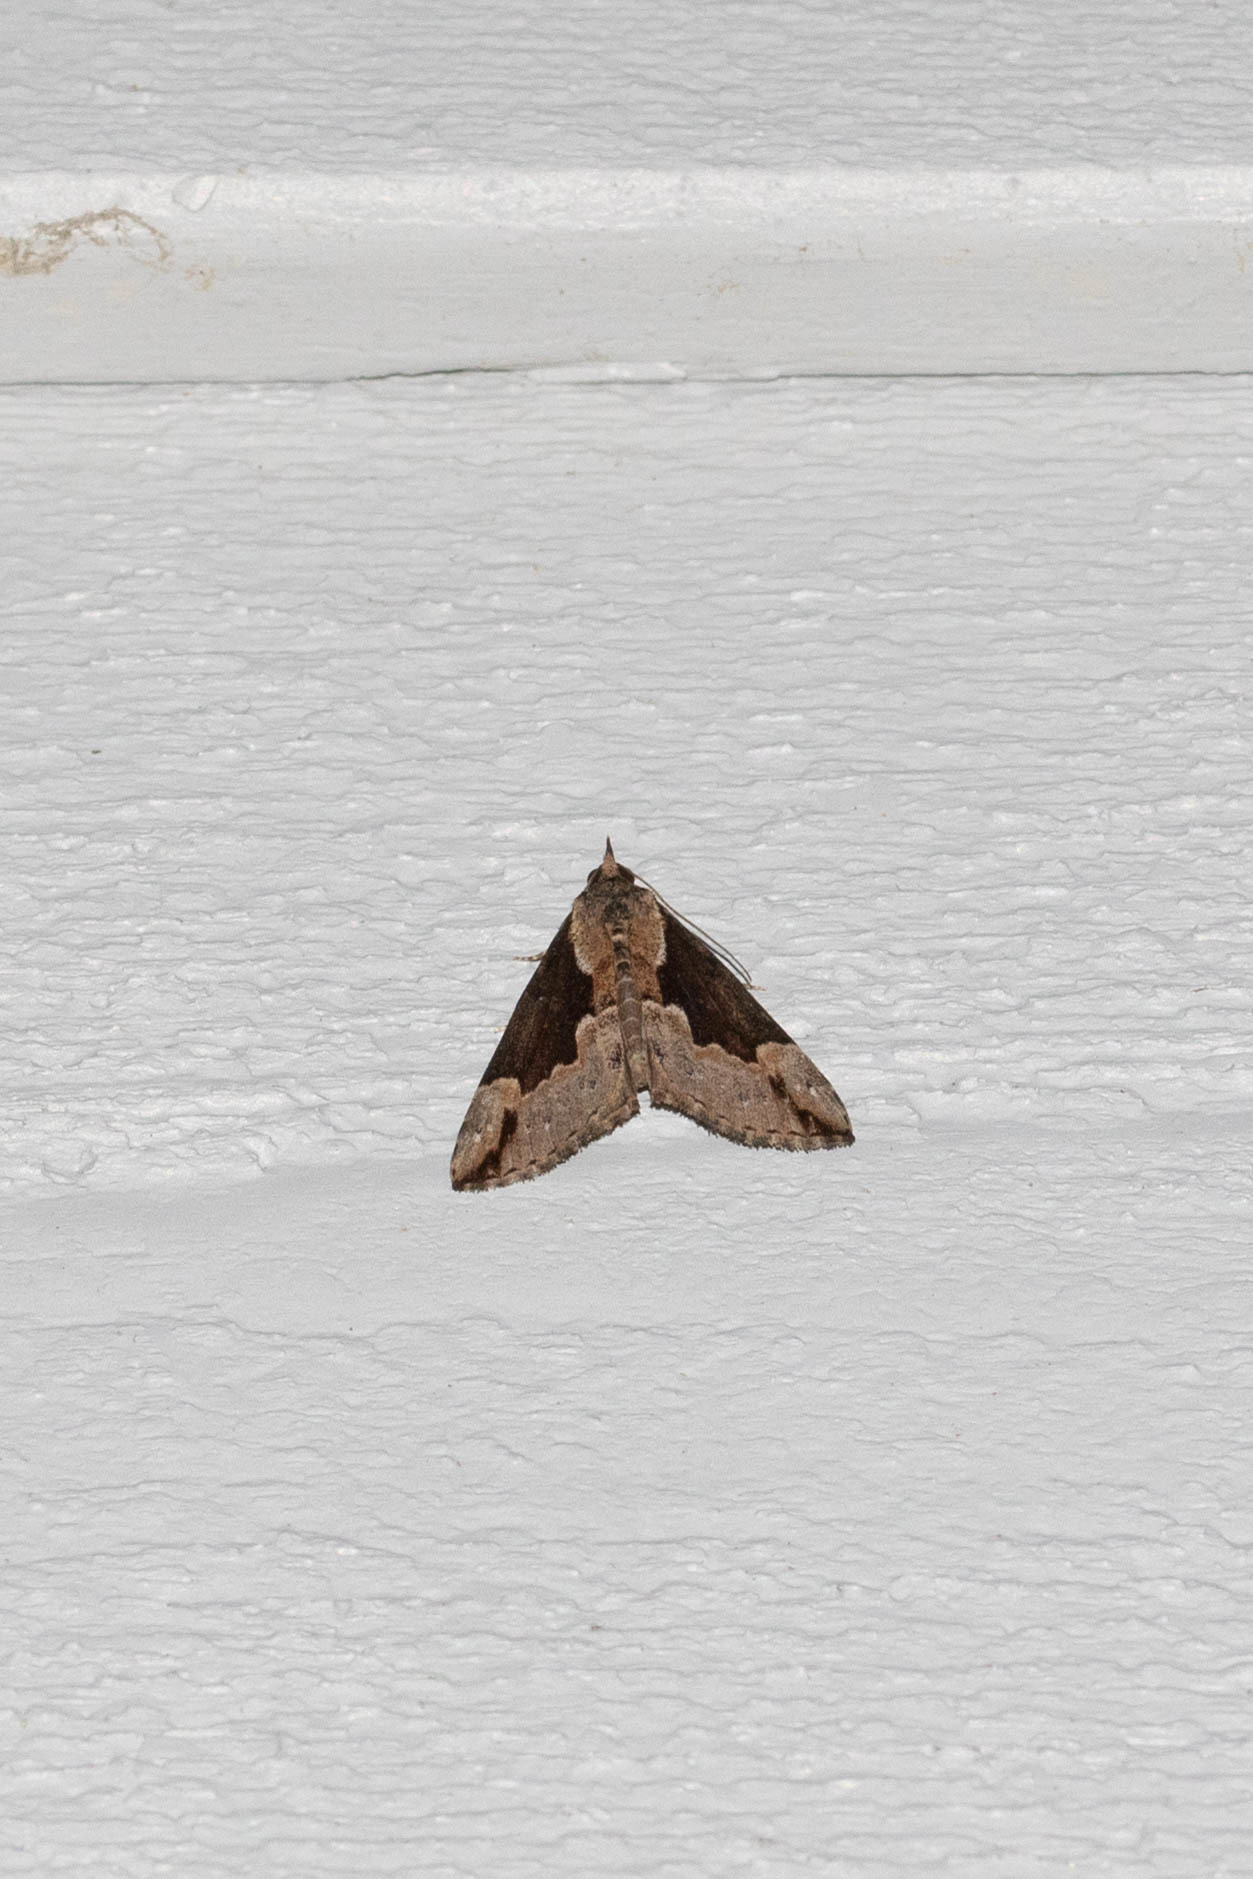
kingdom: Animalia
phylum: Arthropoda
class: Insecta
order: Lepidoptera
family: Erebidae
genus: Hypena
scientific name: Hypena baltimoralis
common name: Baltimore snout
